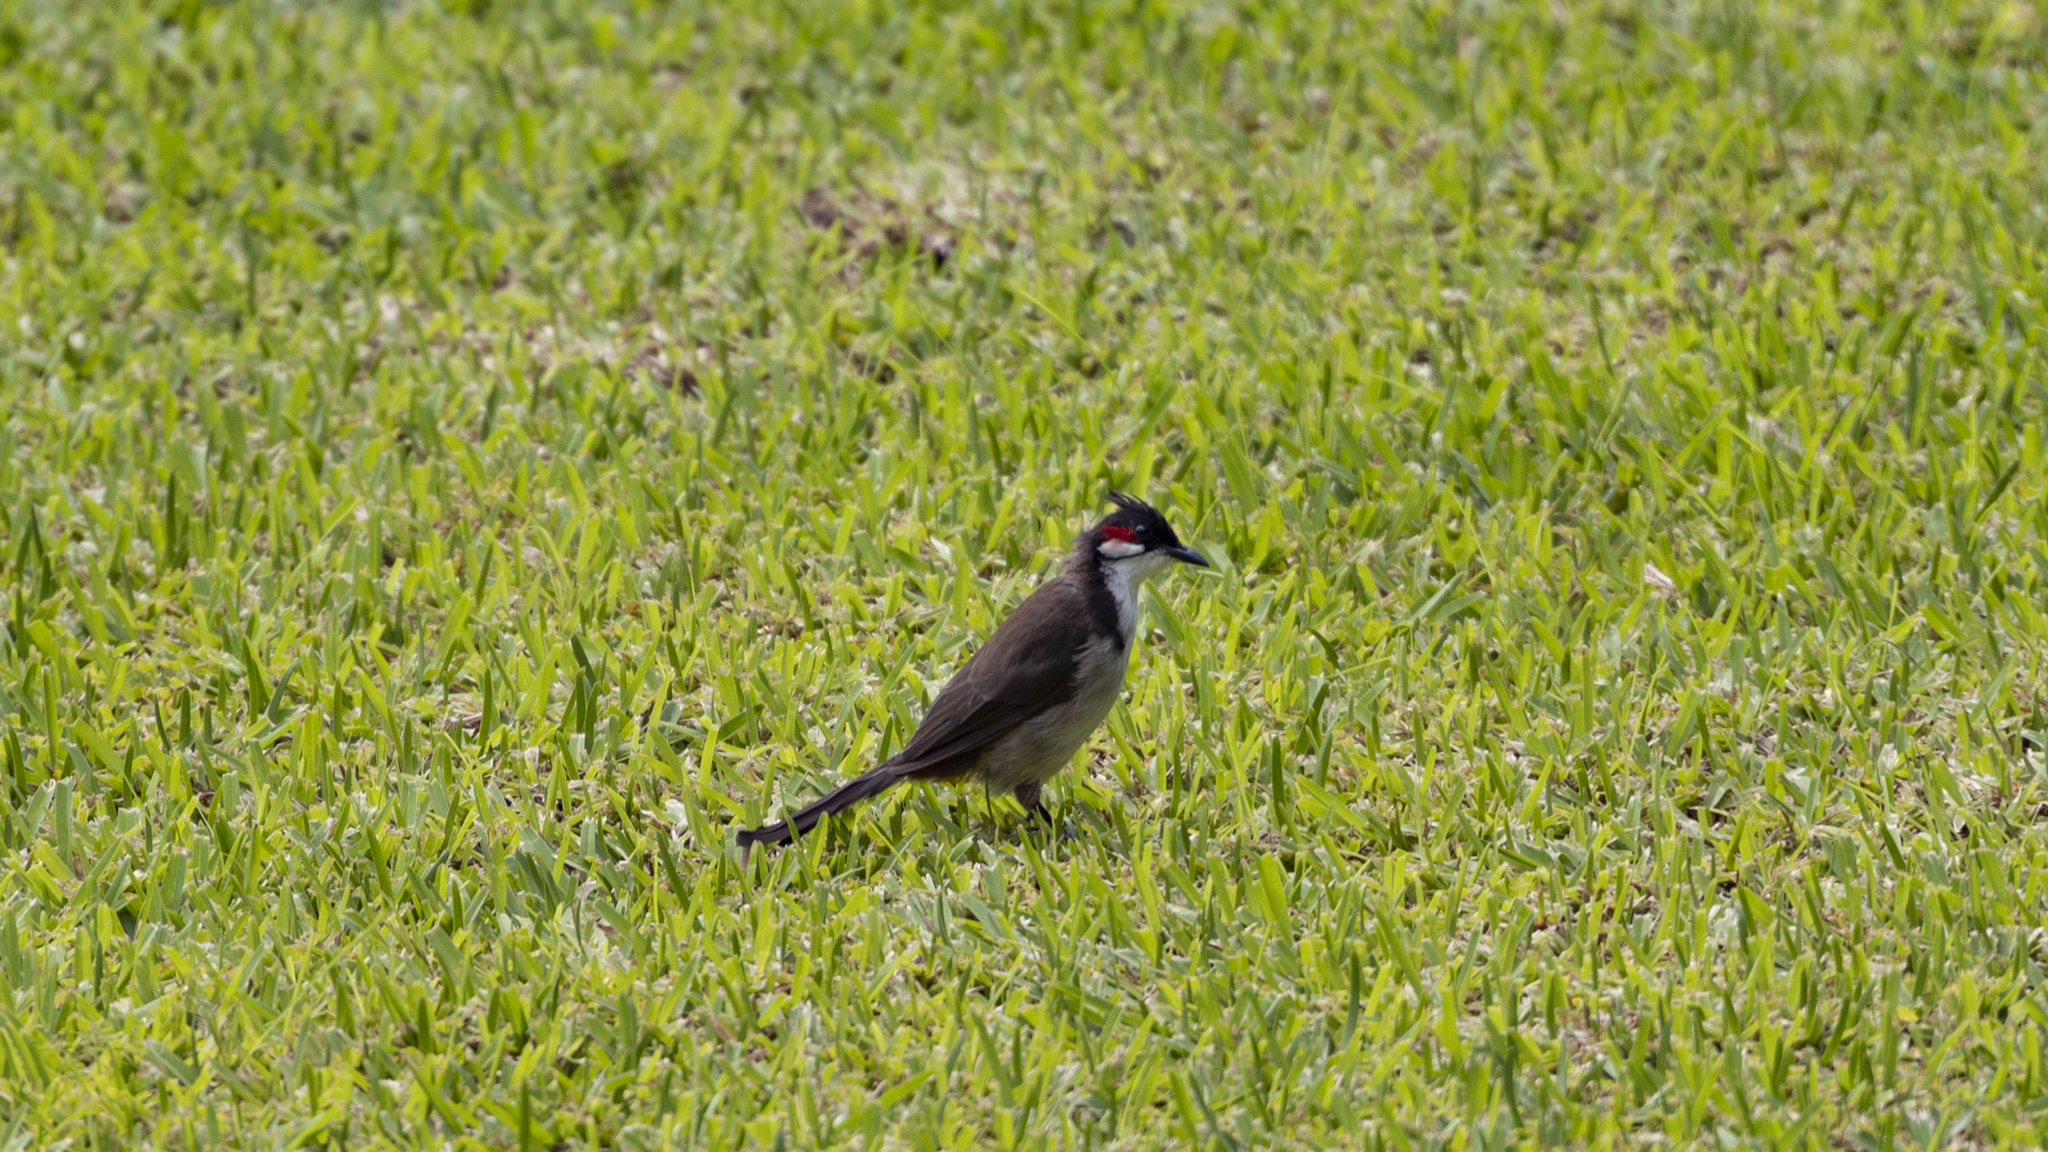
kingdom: Animalia
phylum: Chordata
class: Aves
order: Passeriformes
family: Pycnonotidae
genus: Pycnonotus
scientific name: Pycnonotus jocosus
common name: Red-whiskered bulbul
